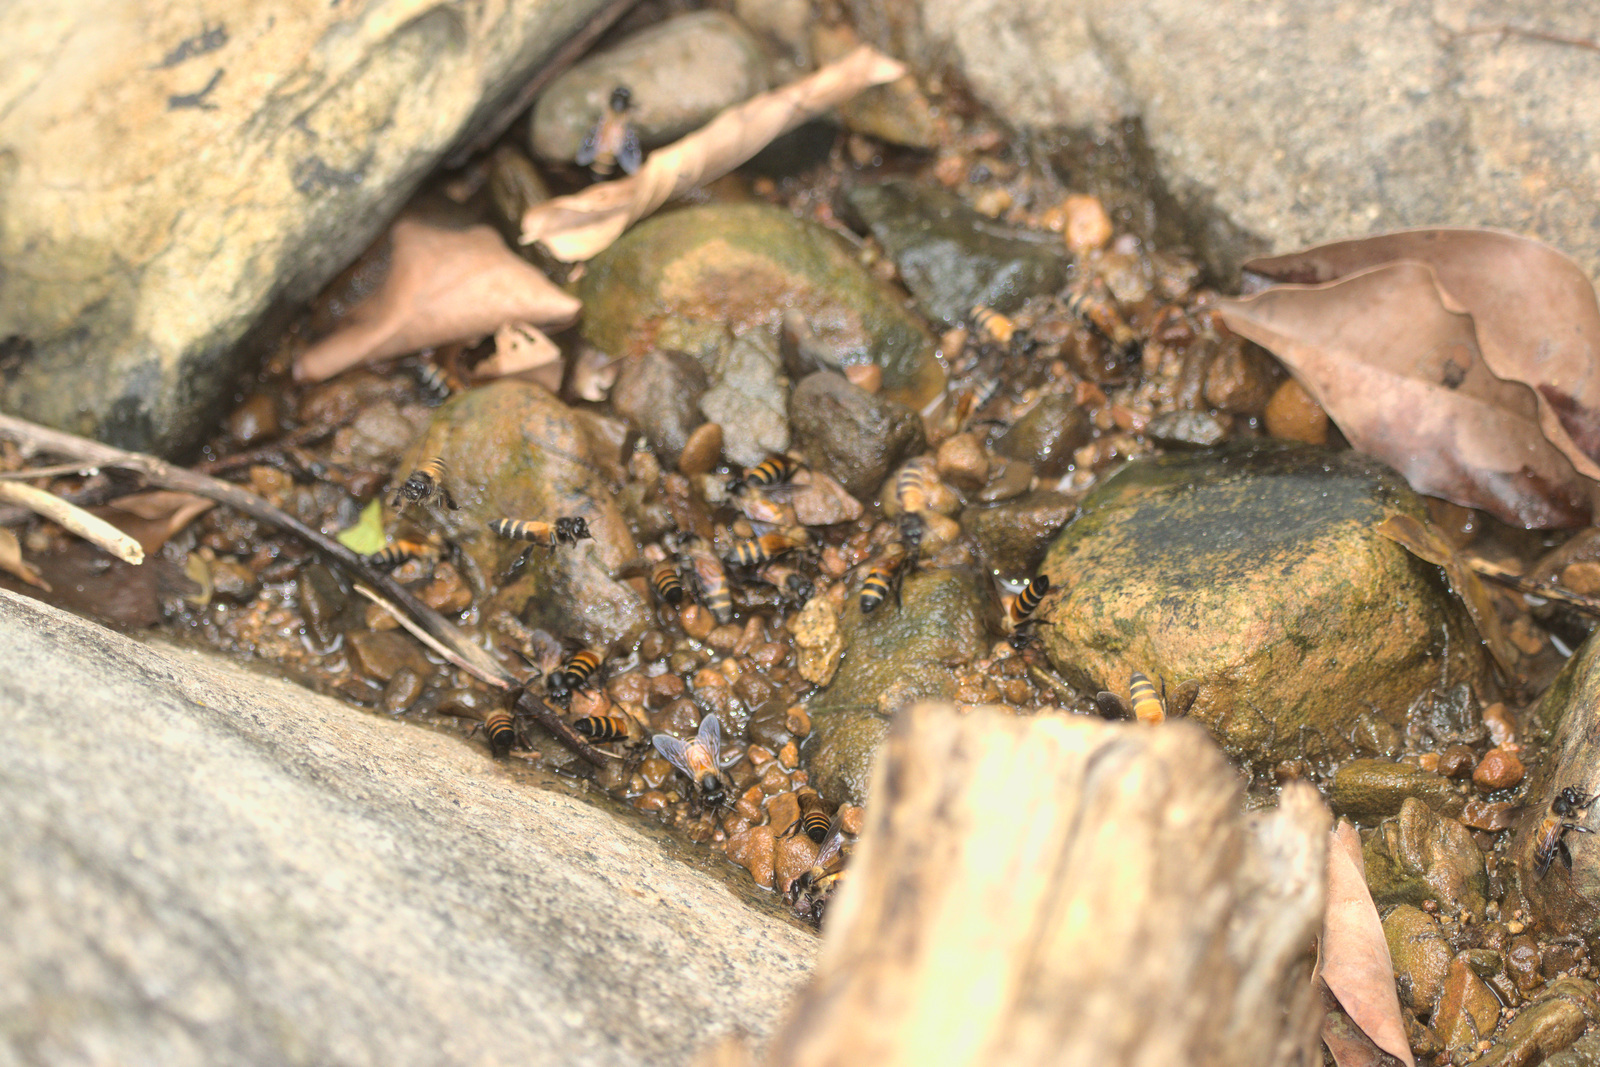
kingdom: Animalia
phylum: Arthropoda
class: Insecta
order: Hymenoptera
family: Apidae
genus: Apis
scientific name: Apis dorsata
